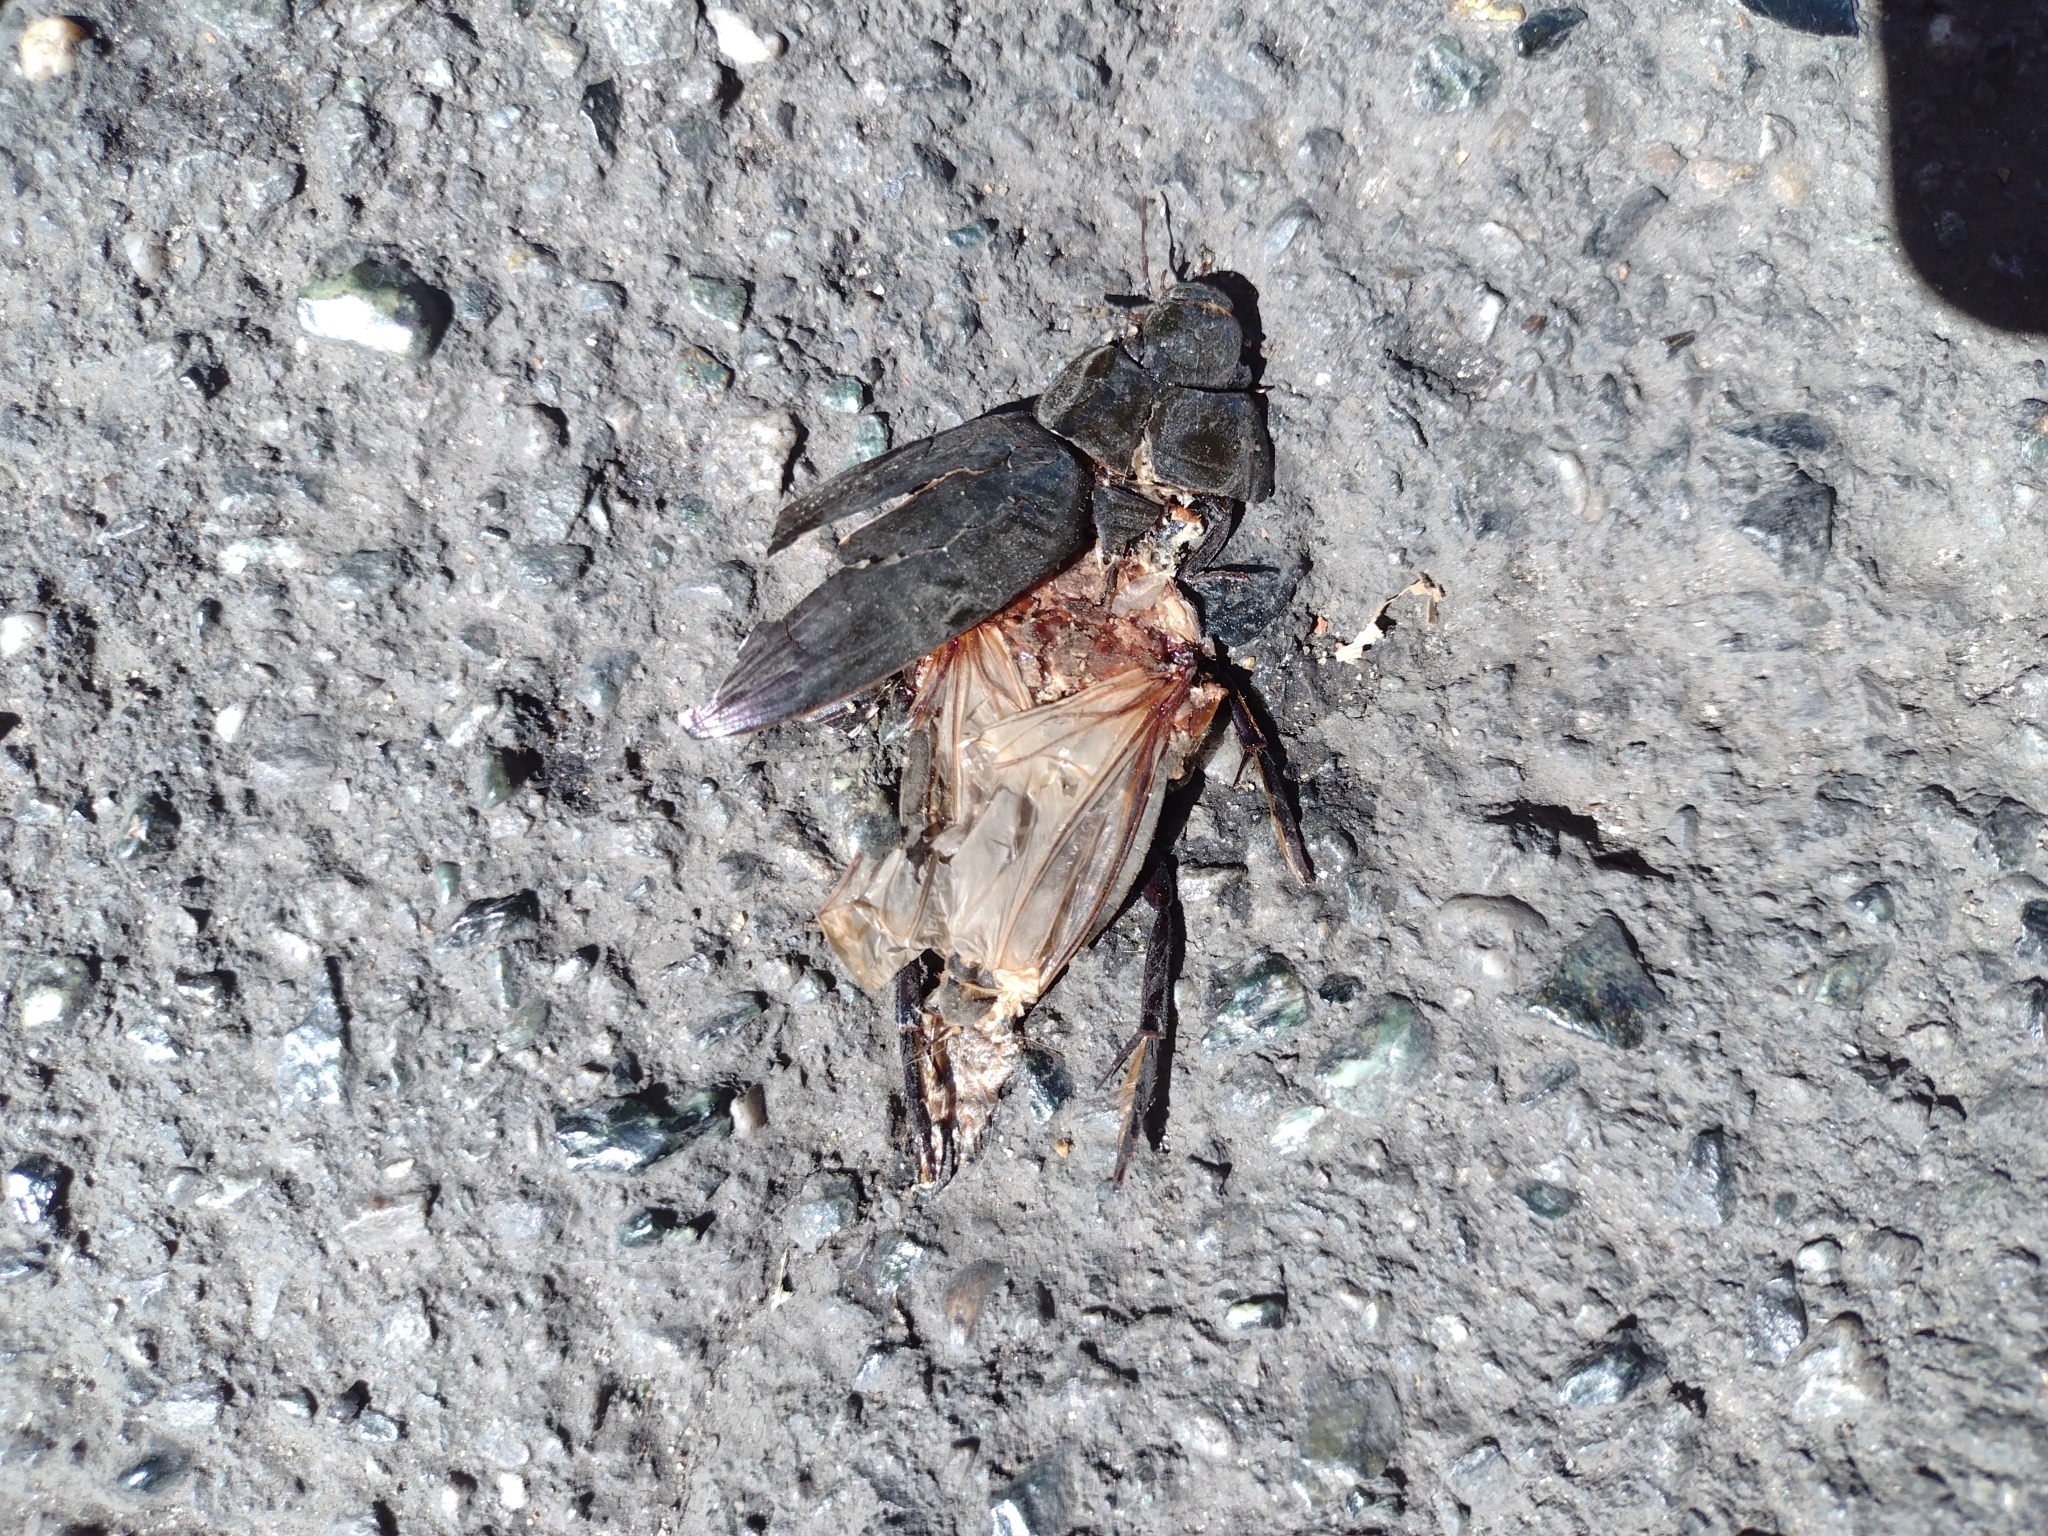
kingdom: Animalia
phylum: Arthropoda
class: Insecta
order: Coleoptera
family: Hydrophilidae
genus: Hydrophilus
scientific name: Hydrophilus
